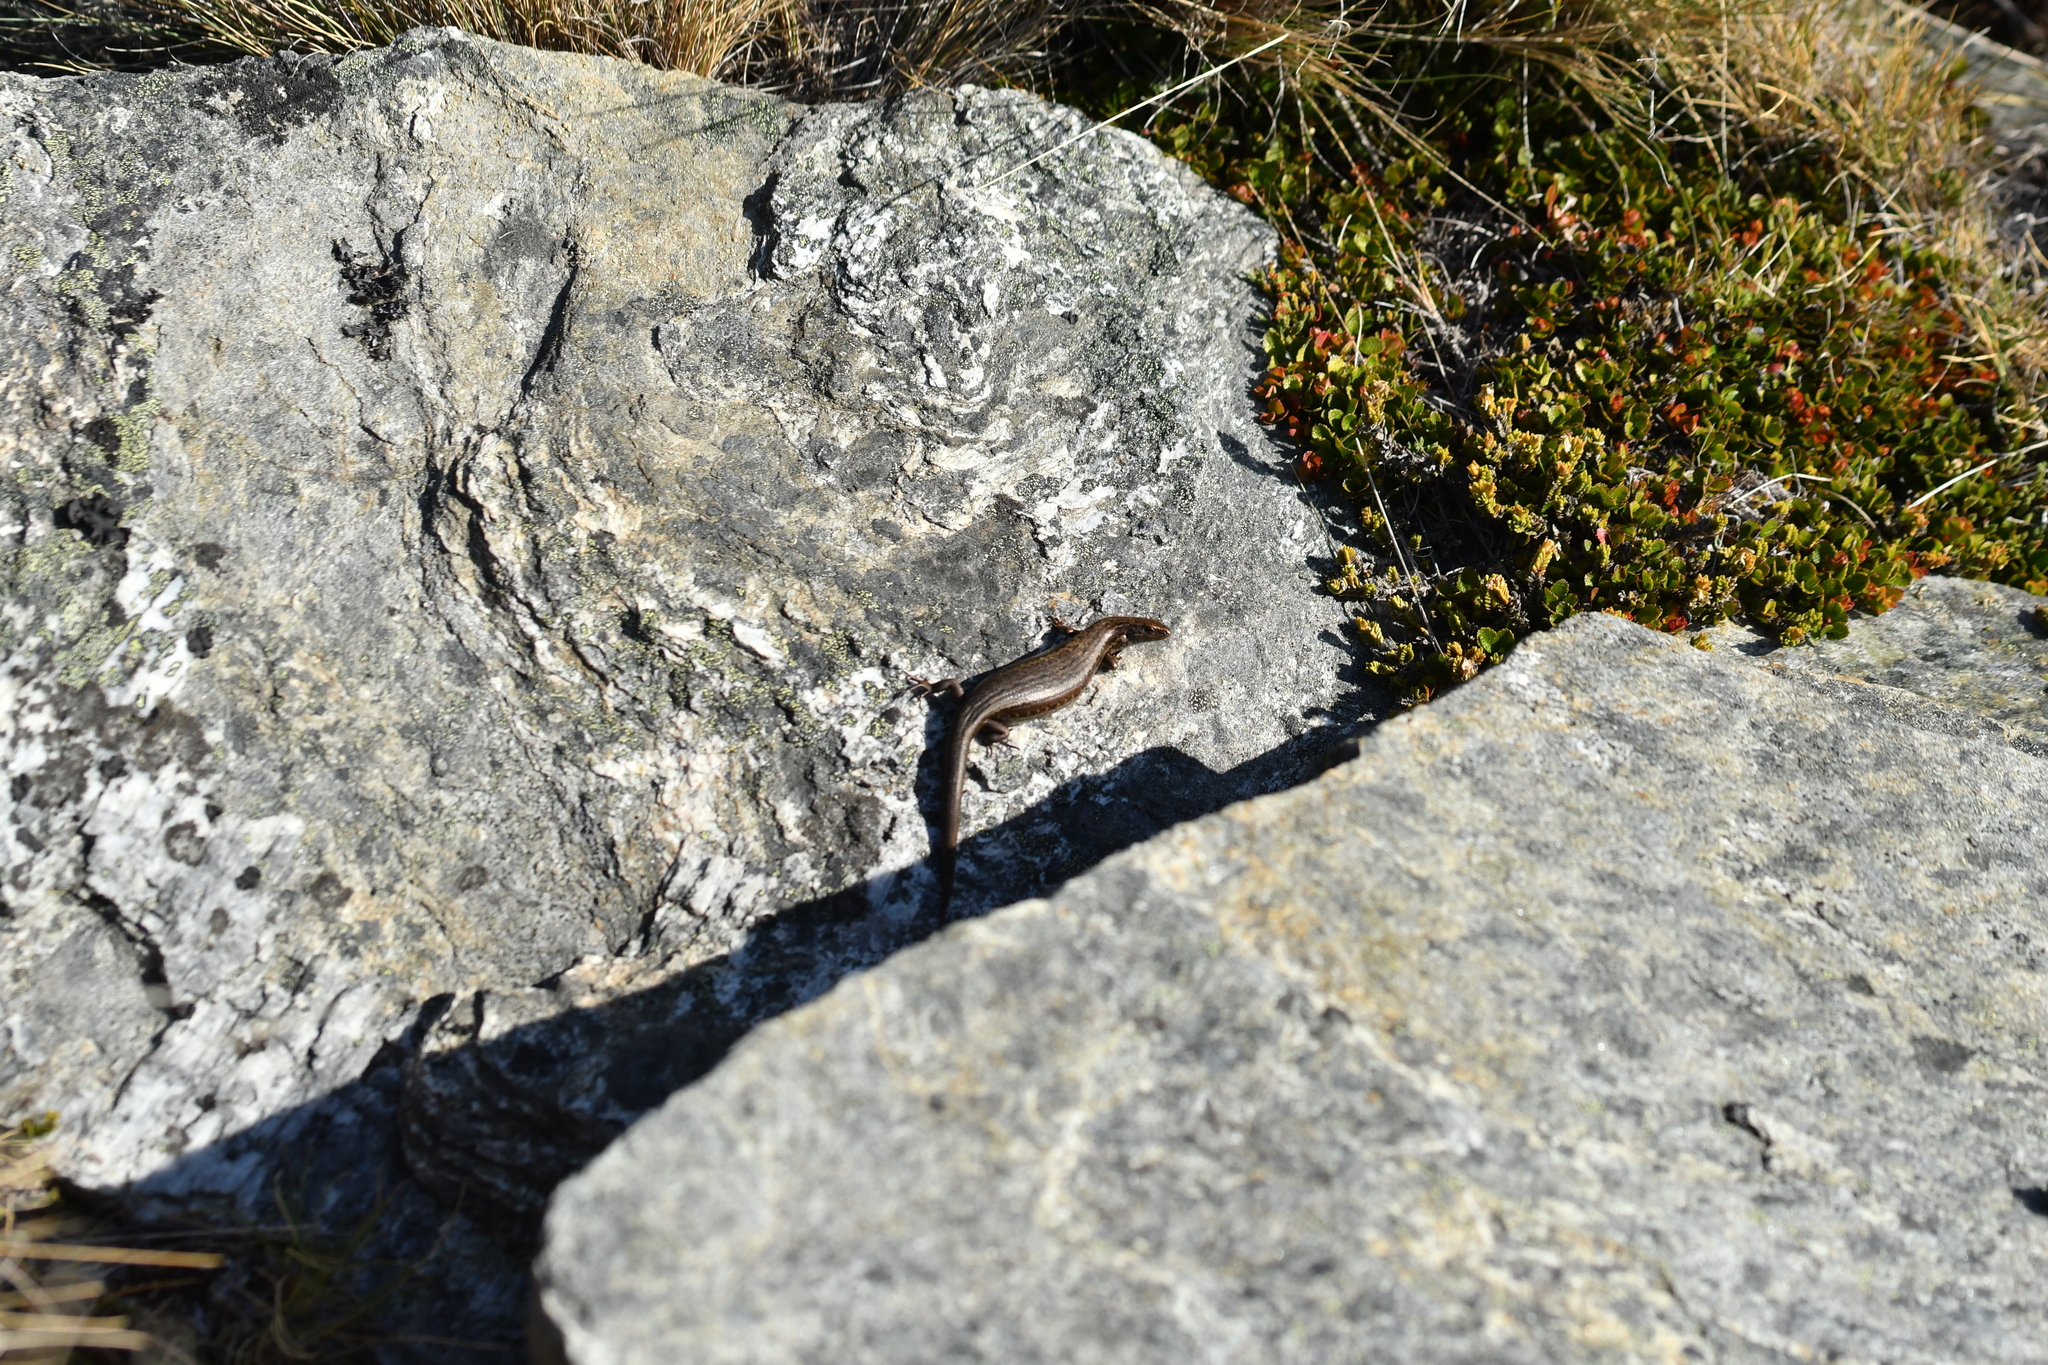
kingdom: Animalia
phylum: Chordata
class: Squamata
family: Scincidae
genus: Oligosoma
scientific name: Oligosoma inconspicuum
